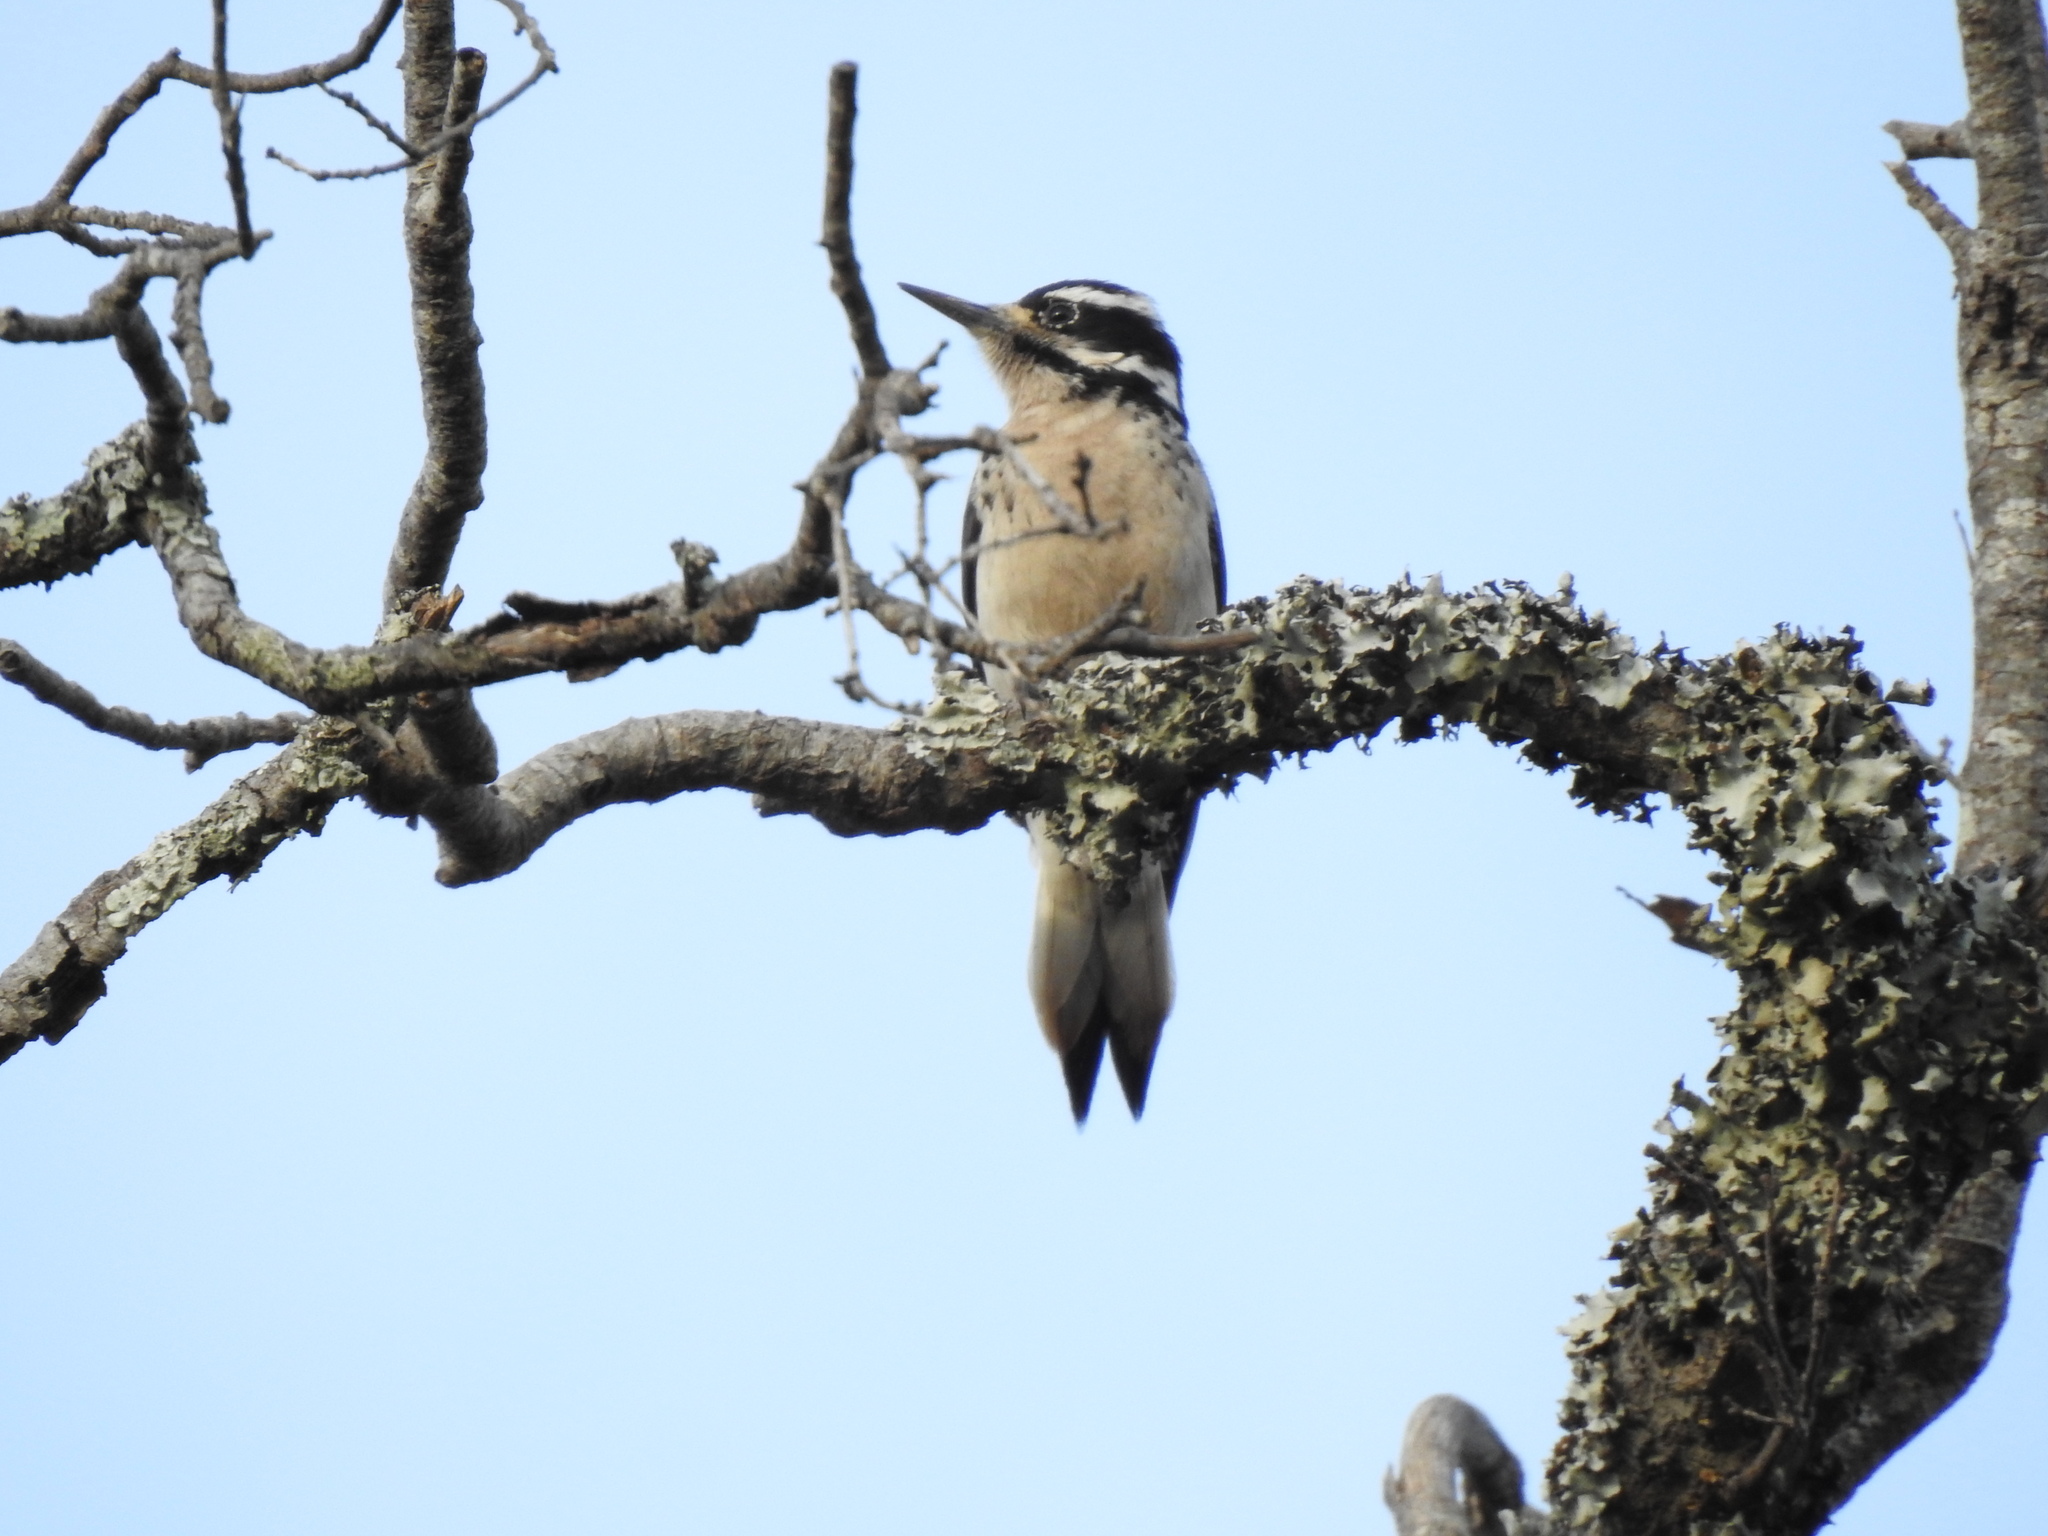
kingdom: Animalia
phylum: Chordata
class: Aves
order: Piciformes
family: Picidae
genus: Leuconotopicus
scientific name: Leuconotopicus villosus
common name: Hairy woodpecker
